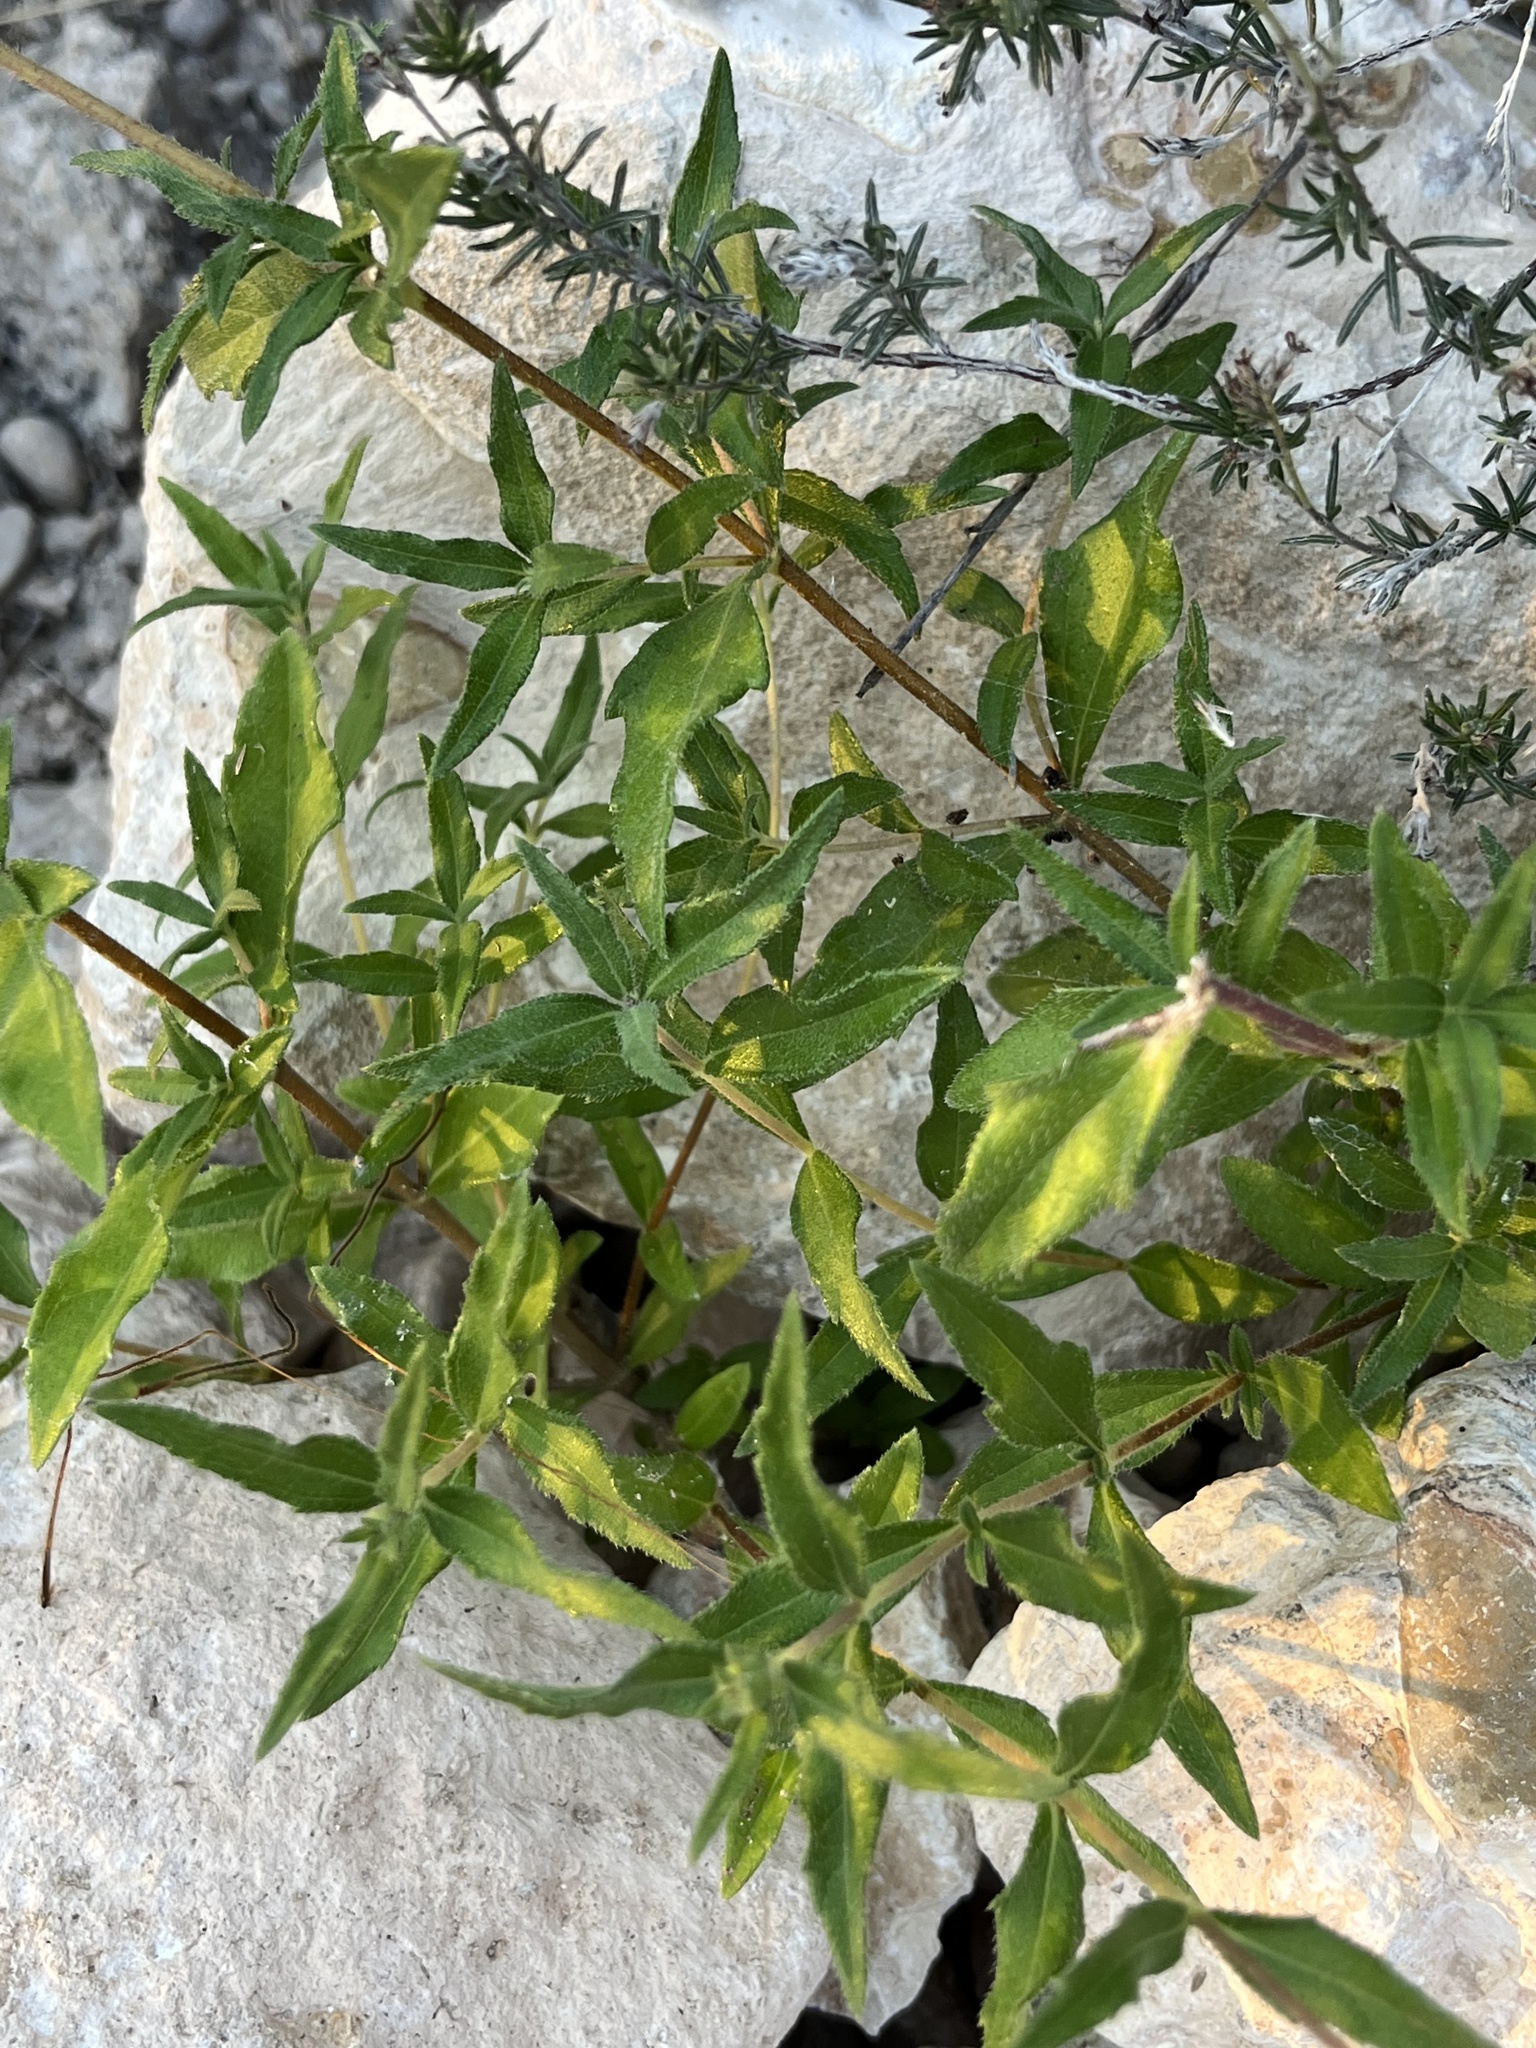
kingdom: Plantae
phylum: Tracheophyta
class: Magnoliopsida
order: Asterales
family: Asteraceae
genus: Wedelia
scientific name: Wedelia acapulcensis
